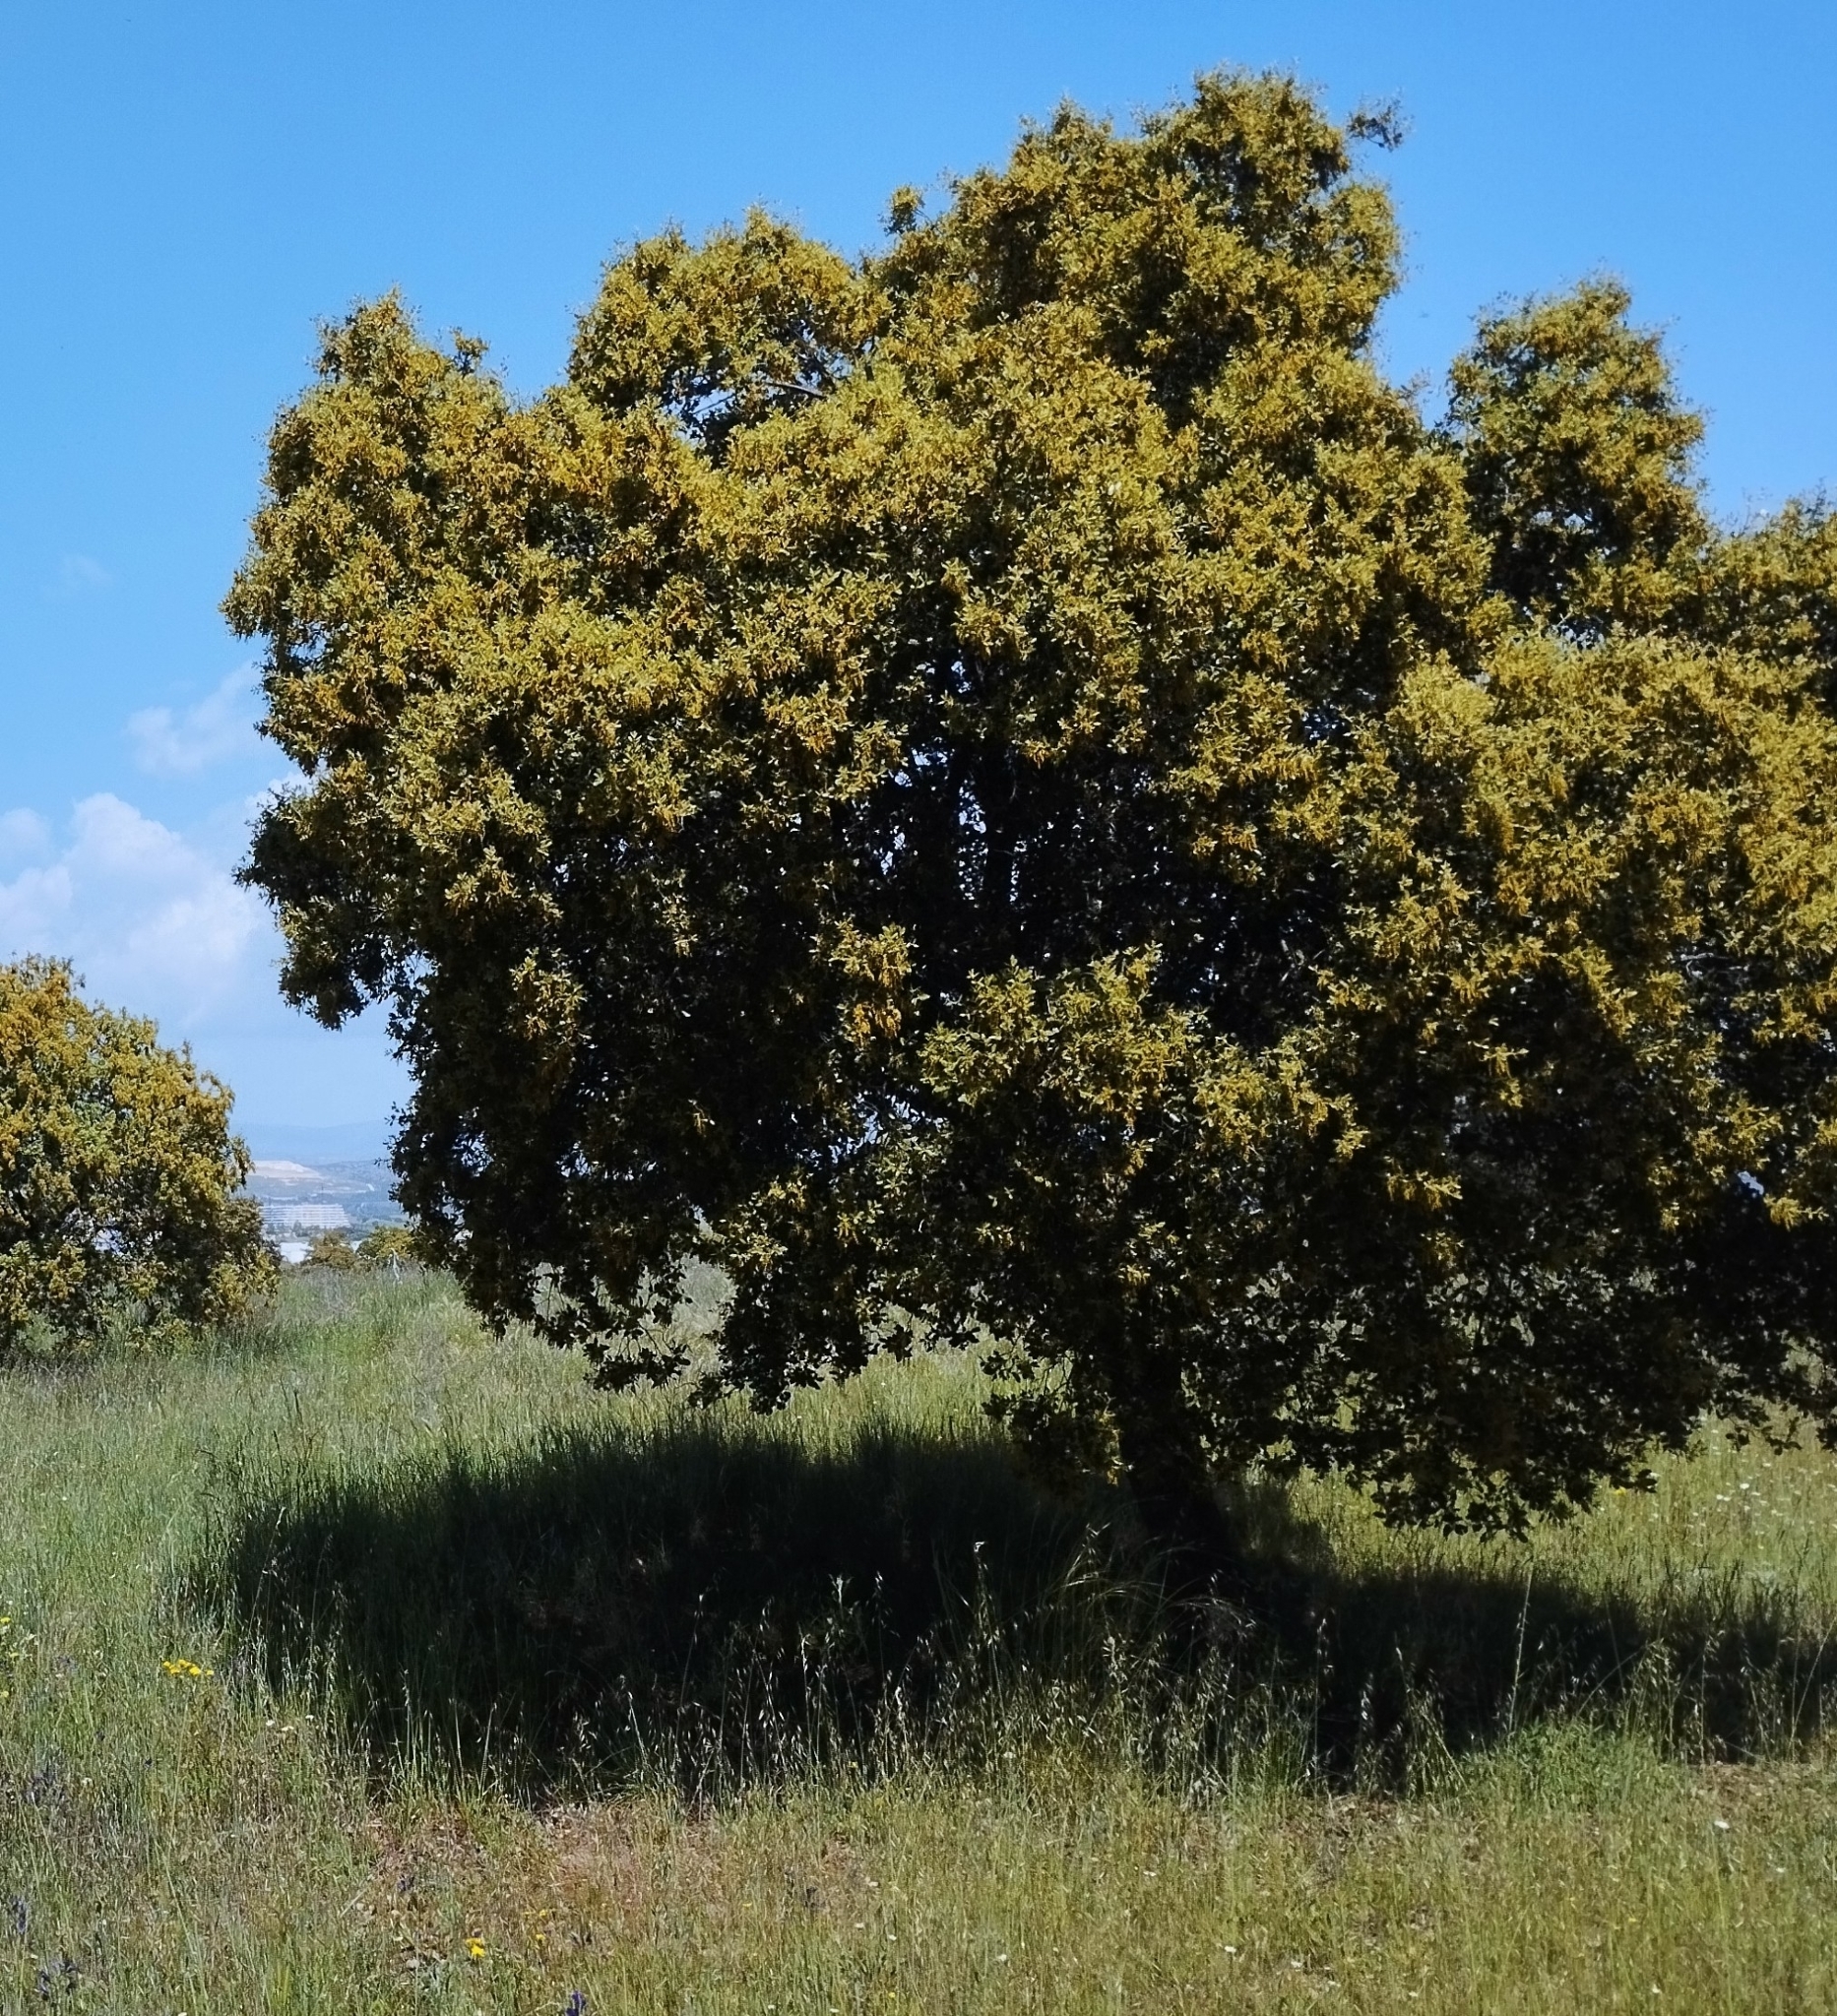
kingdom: Plantae
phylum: Tracheophyta
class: Magnoliopsida
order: Fagales
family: Fagaceae
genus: Quercus
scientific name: Quercus rotundifolia
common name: Holm oak
